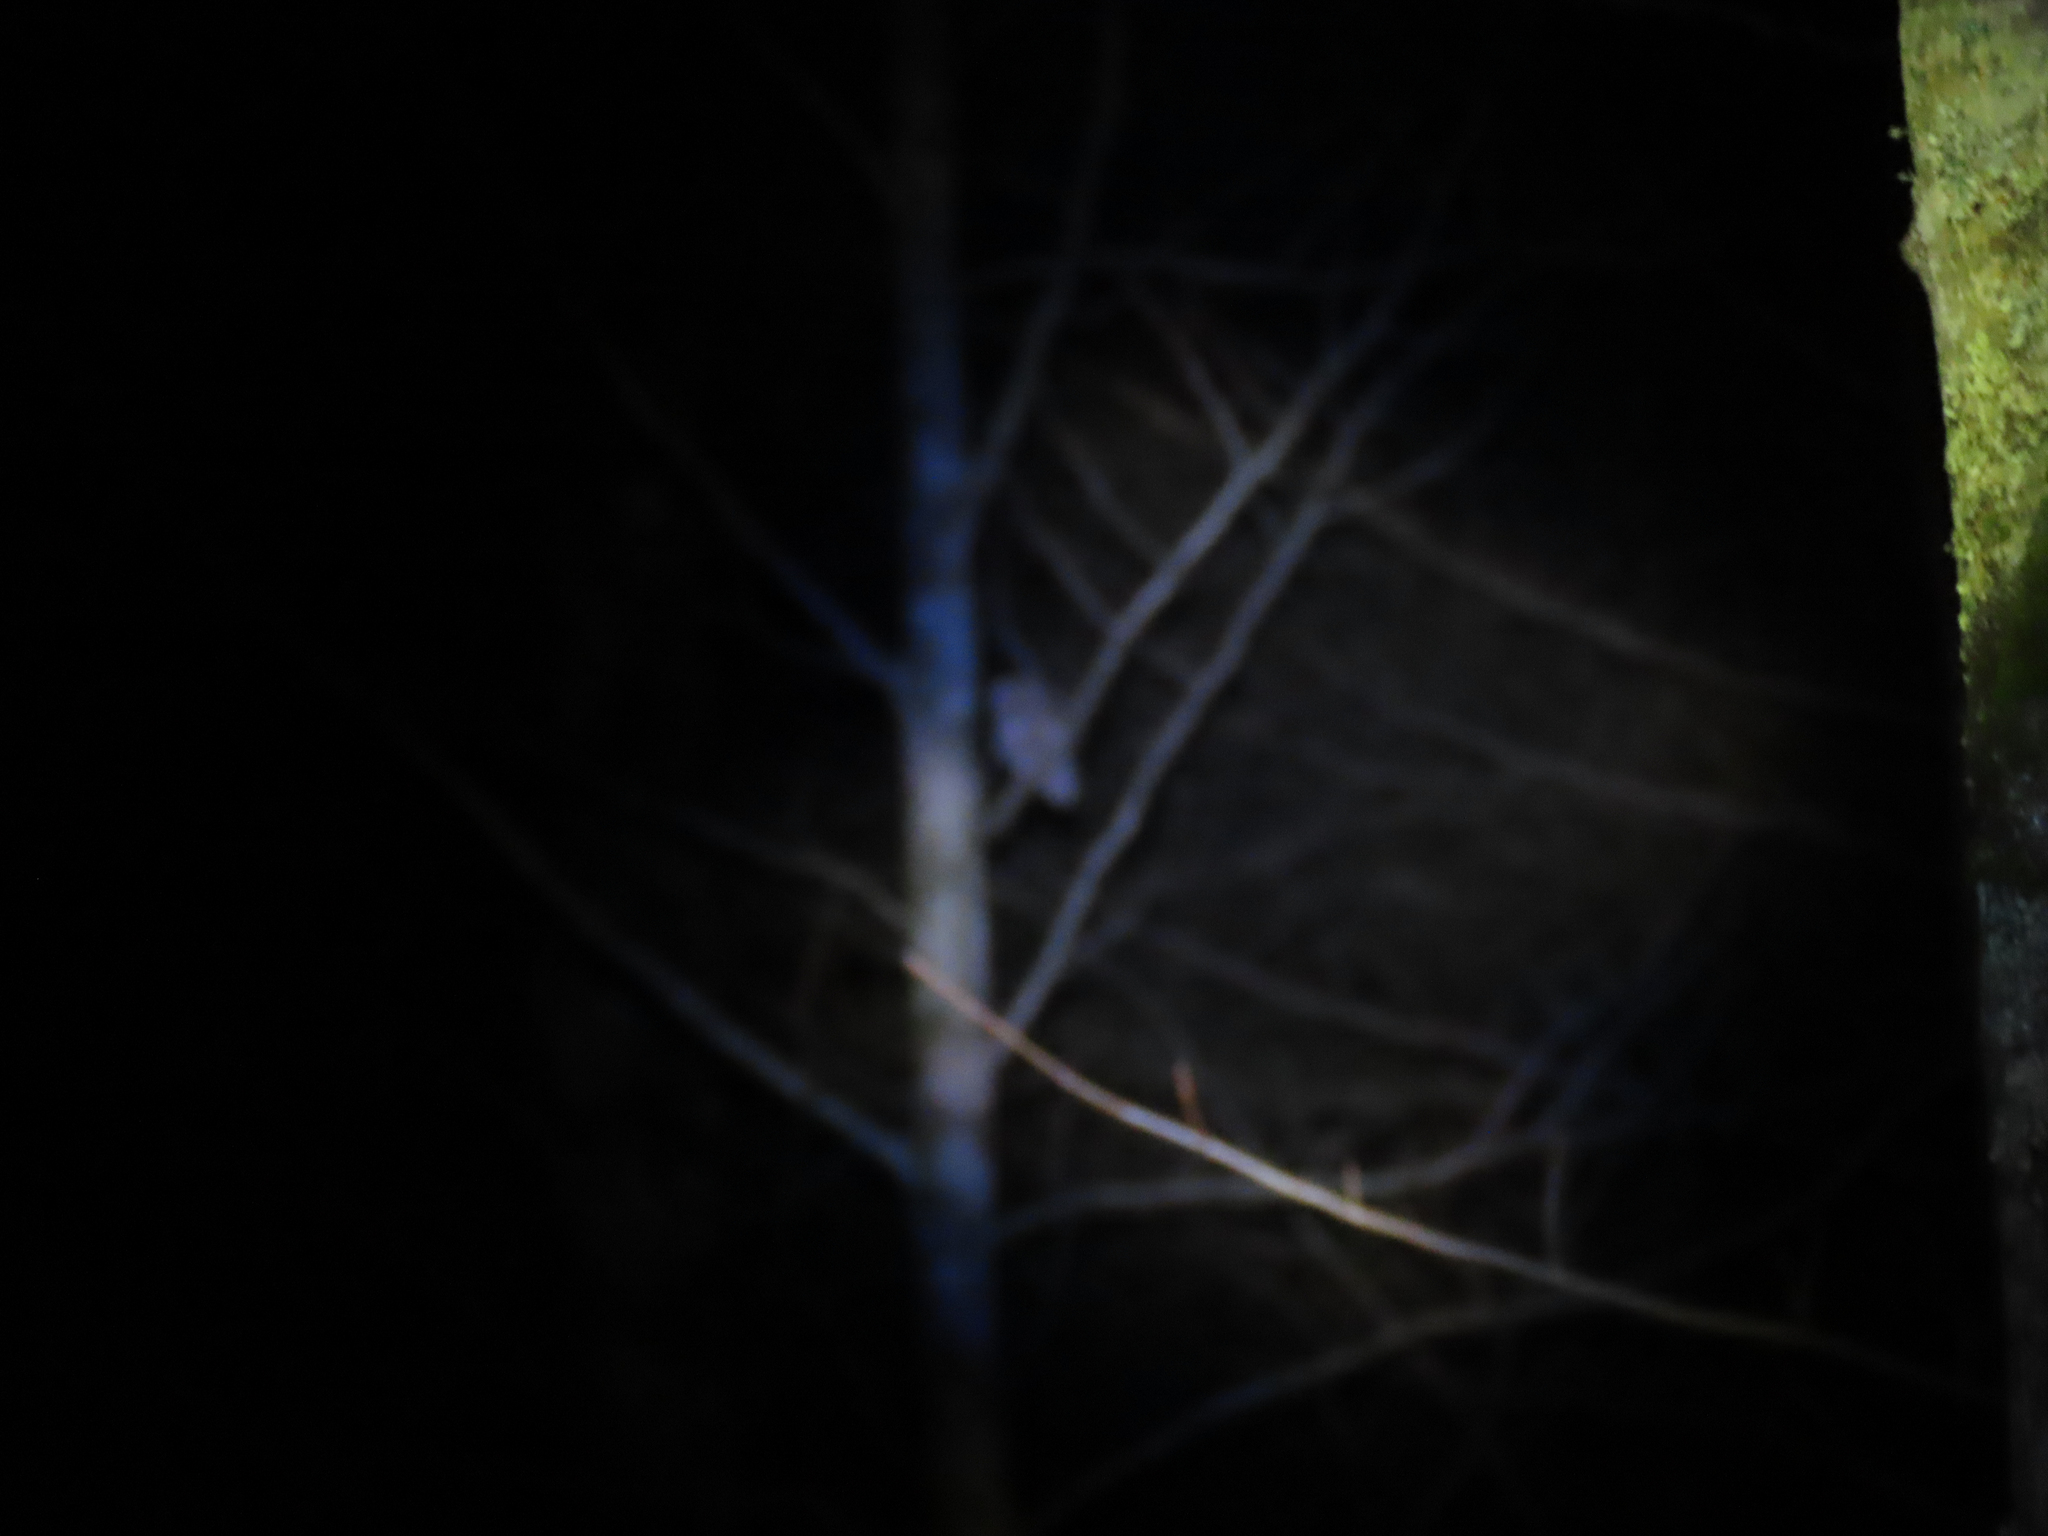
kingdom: Animalia
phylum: Chordata
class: Aves
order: Strigiformes
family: Strigidae
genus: Megascops
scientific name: Megascops asio
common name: Eastern screech-owl
